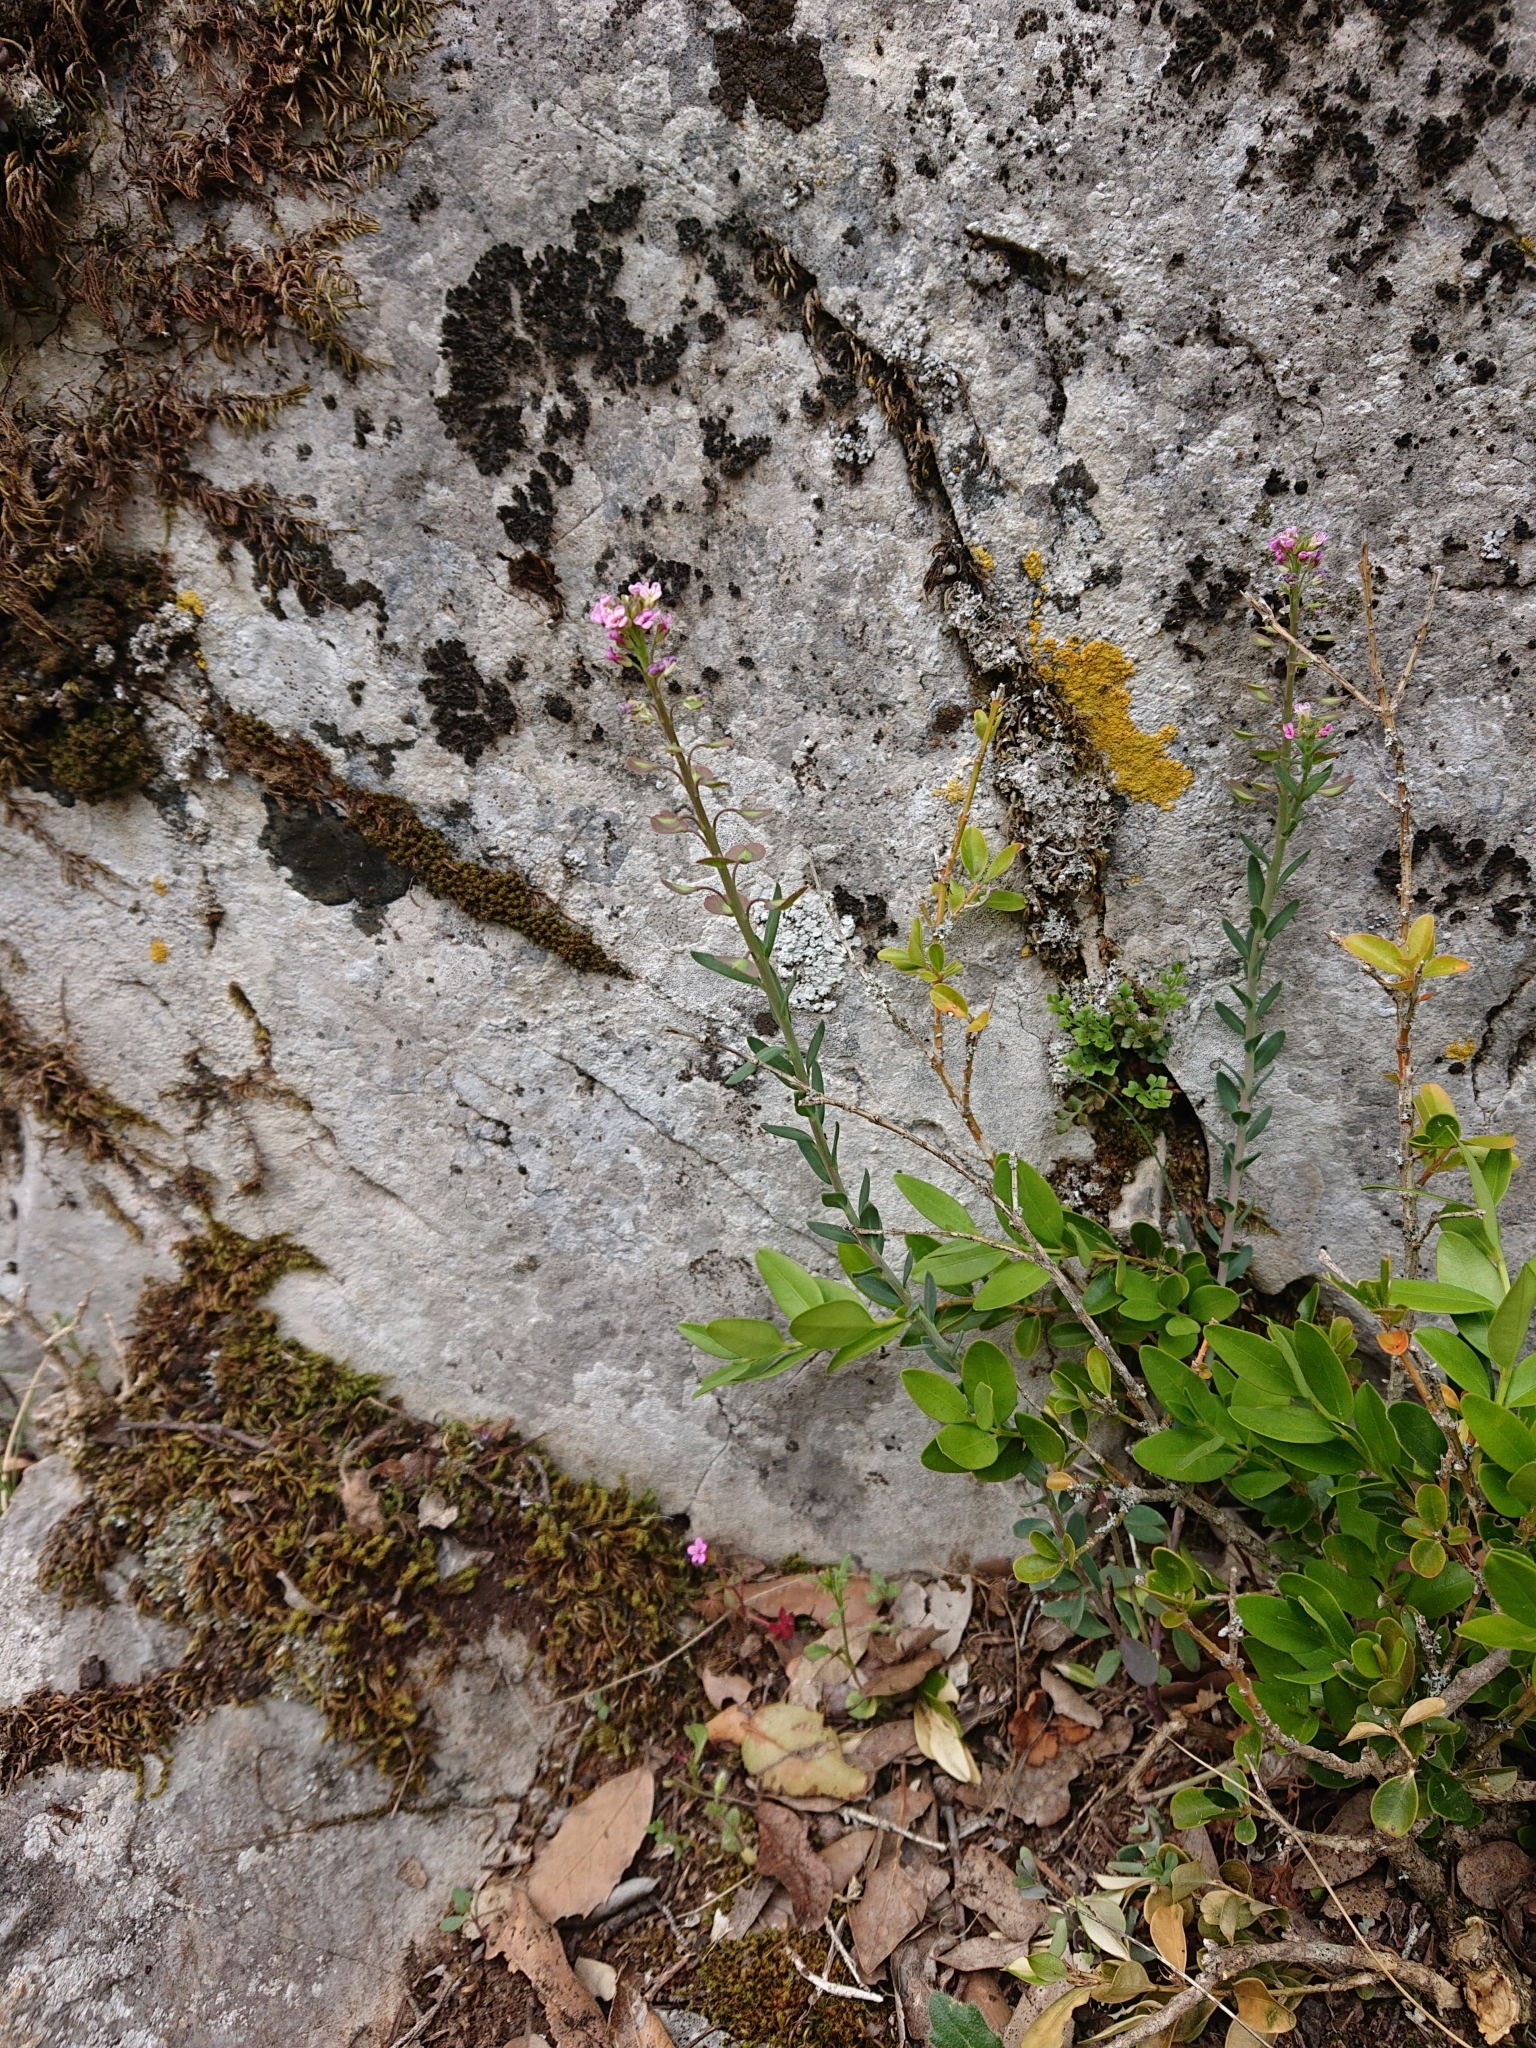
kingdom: Plantae
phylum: Tracheophyta
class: Magnoliopsida
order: Brassicales
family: Brassicaceae
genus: Aethionema
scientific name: Aethionema saxatile
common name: Burnt candytuft
